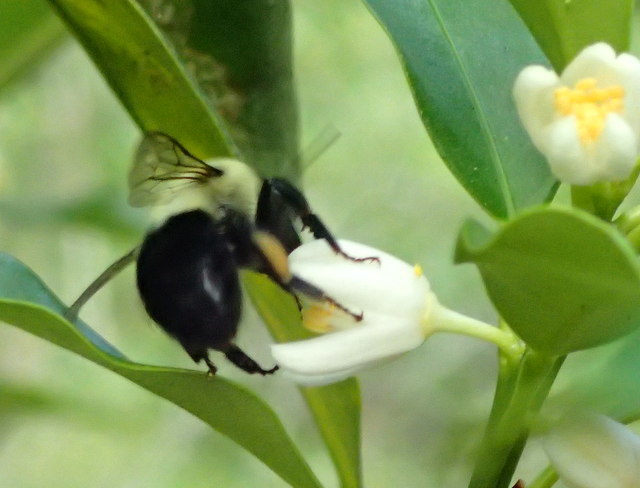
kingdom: Animalia
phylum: Arthropoda
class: Insecta
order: Hymenoptera
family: Apidae
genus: Bombus
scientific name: Bombus impatiens
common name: Common eastern bumble bee
